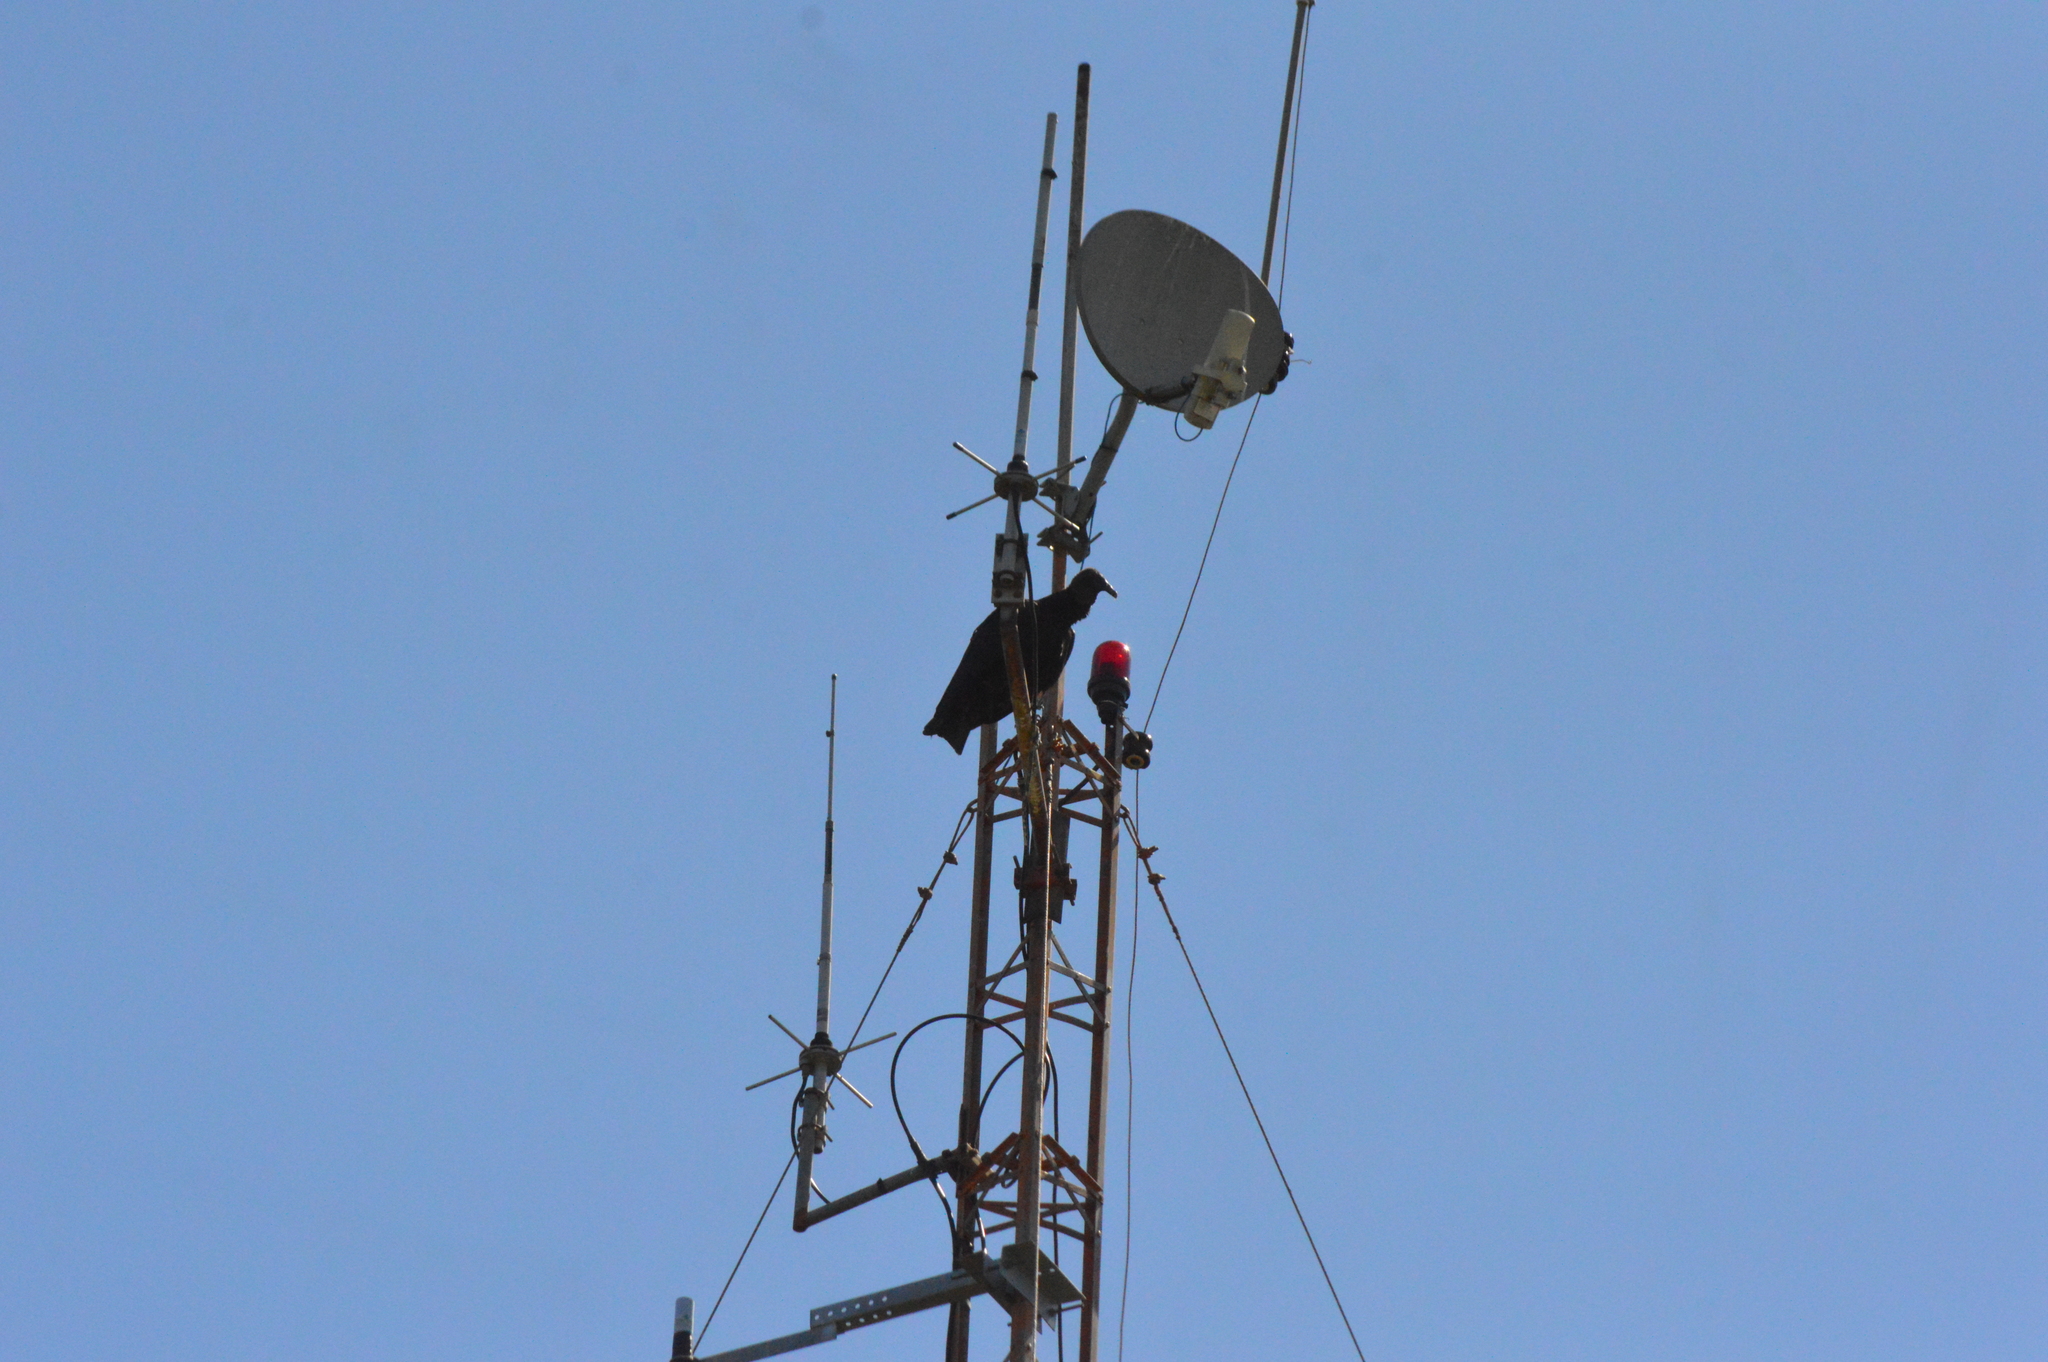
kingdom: Animalia
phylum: Chordata
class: Aves
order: Accipitriformes
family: Cathartidae
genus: Coragyps
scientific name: Coragyps atratus
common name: Black vulture
